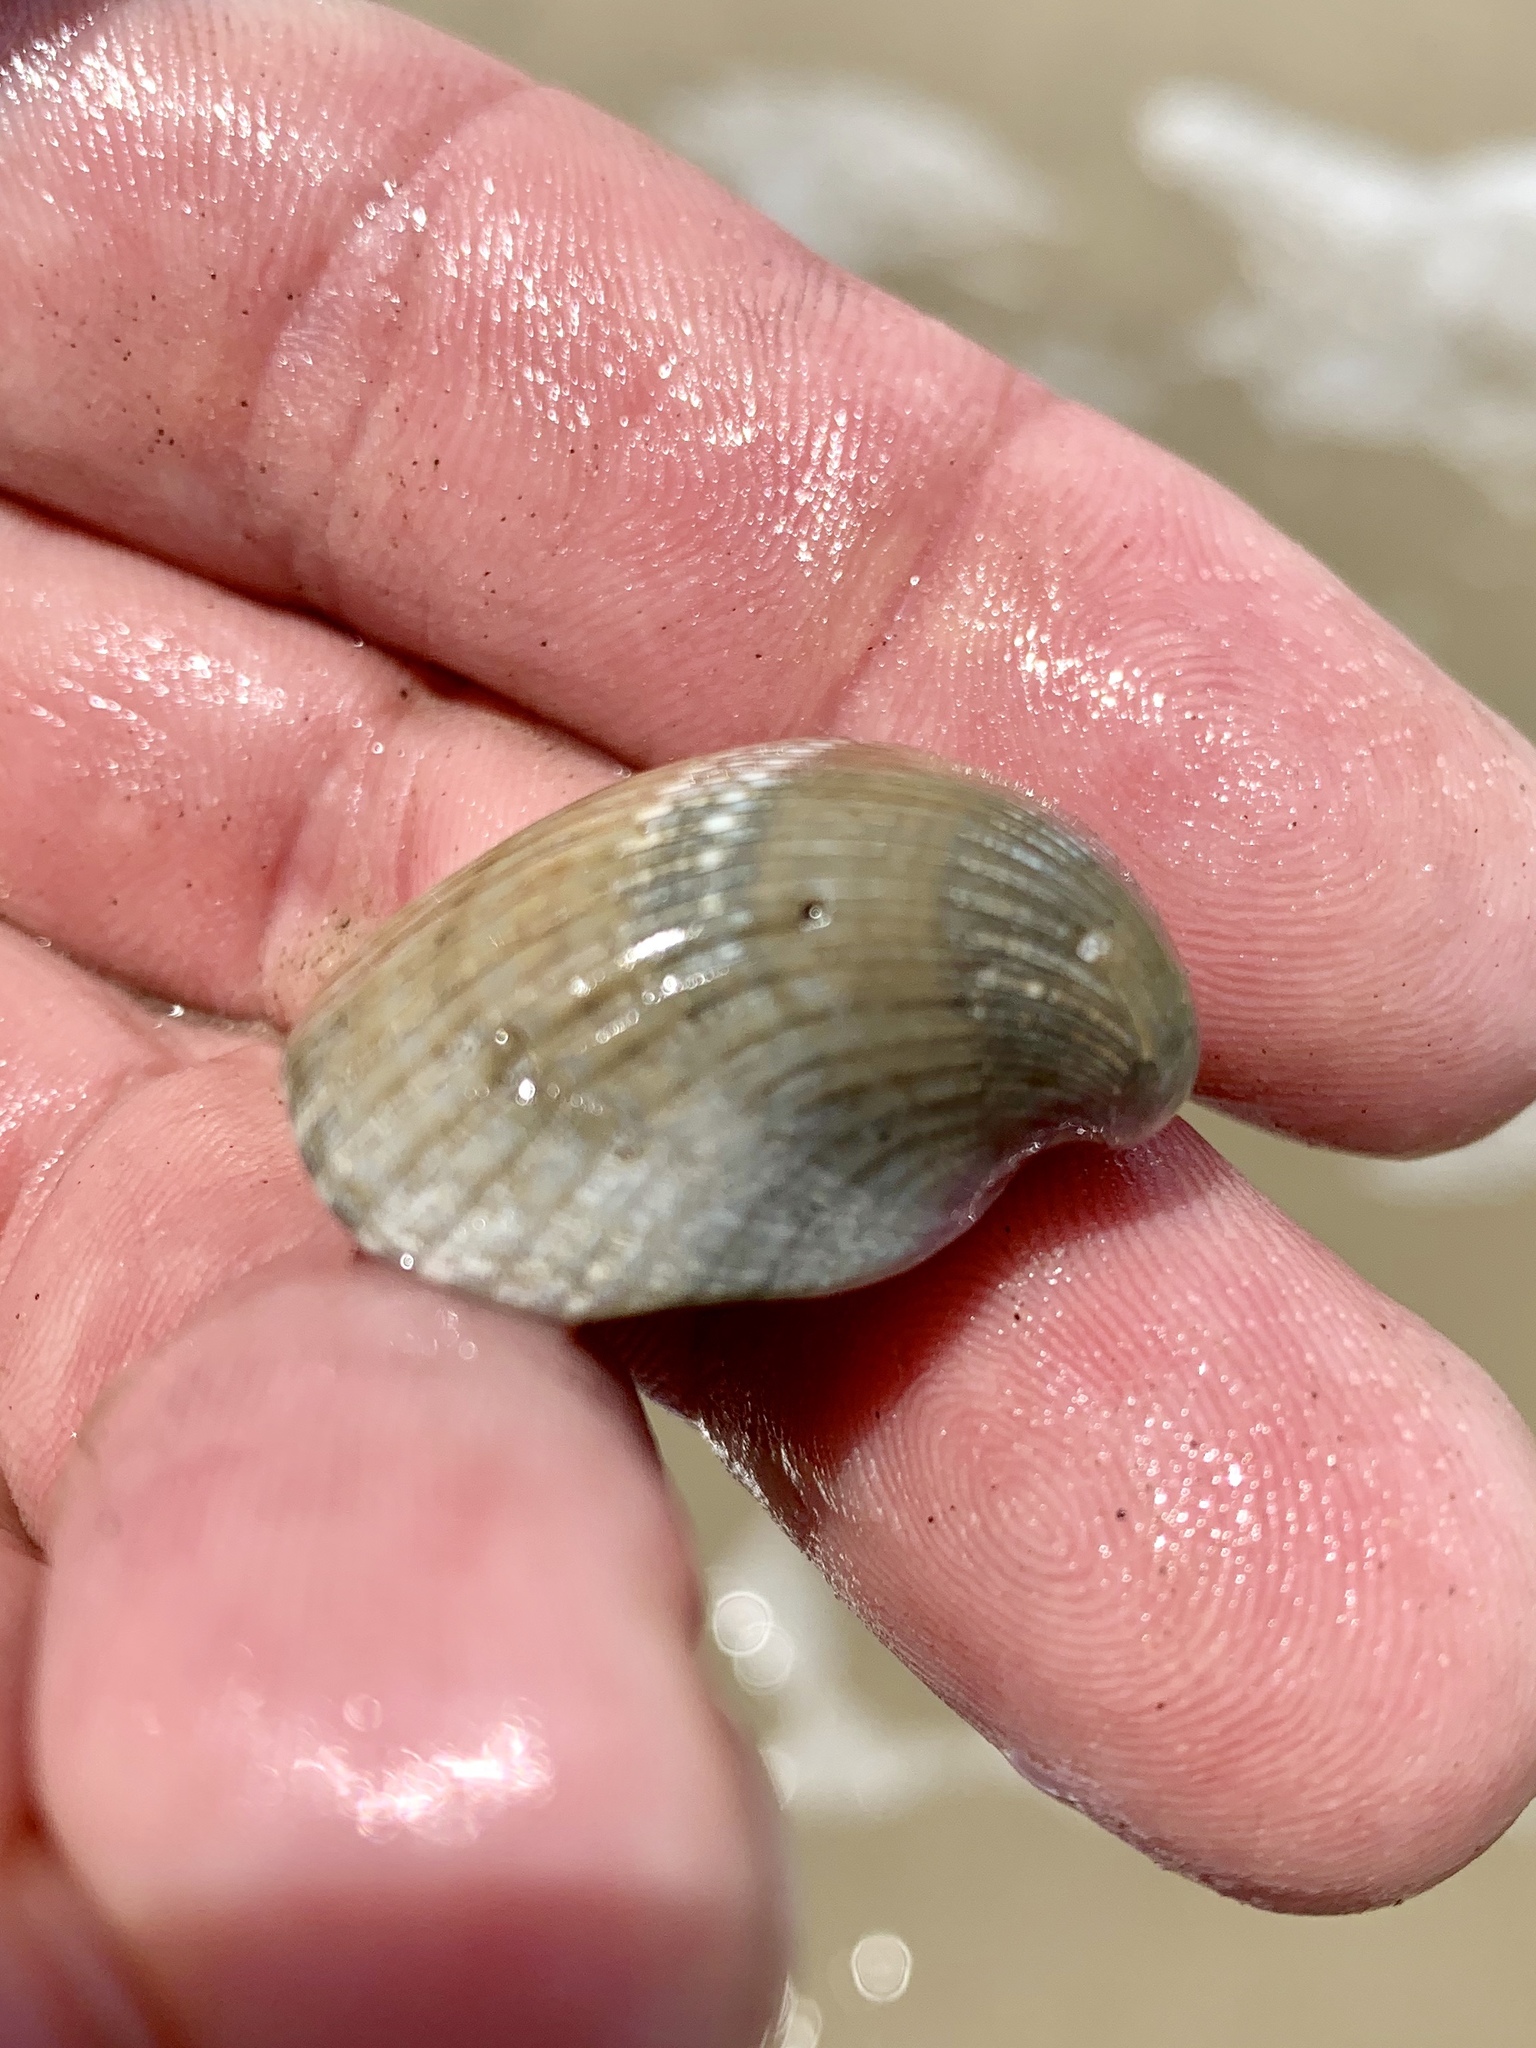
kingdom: Animalia
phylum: Mollusca
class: Bivalvia
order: Arcida
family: Noetiidae
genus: Noetia
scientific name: Noetia ponderosa
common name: Ponderous ark
